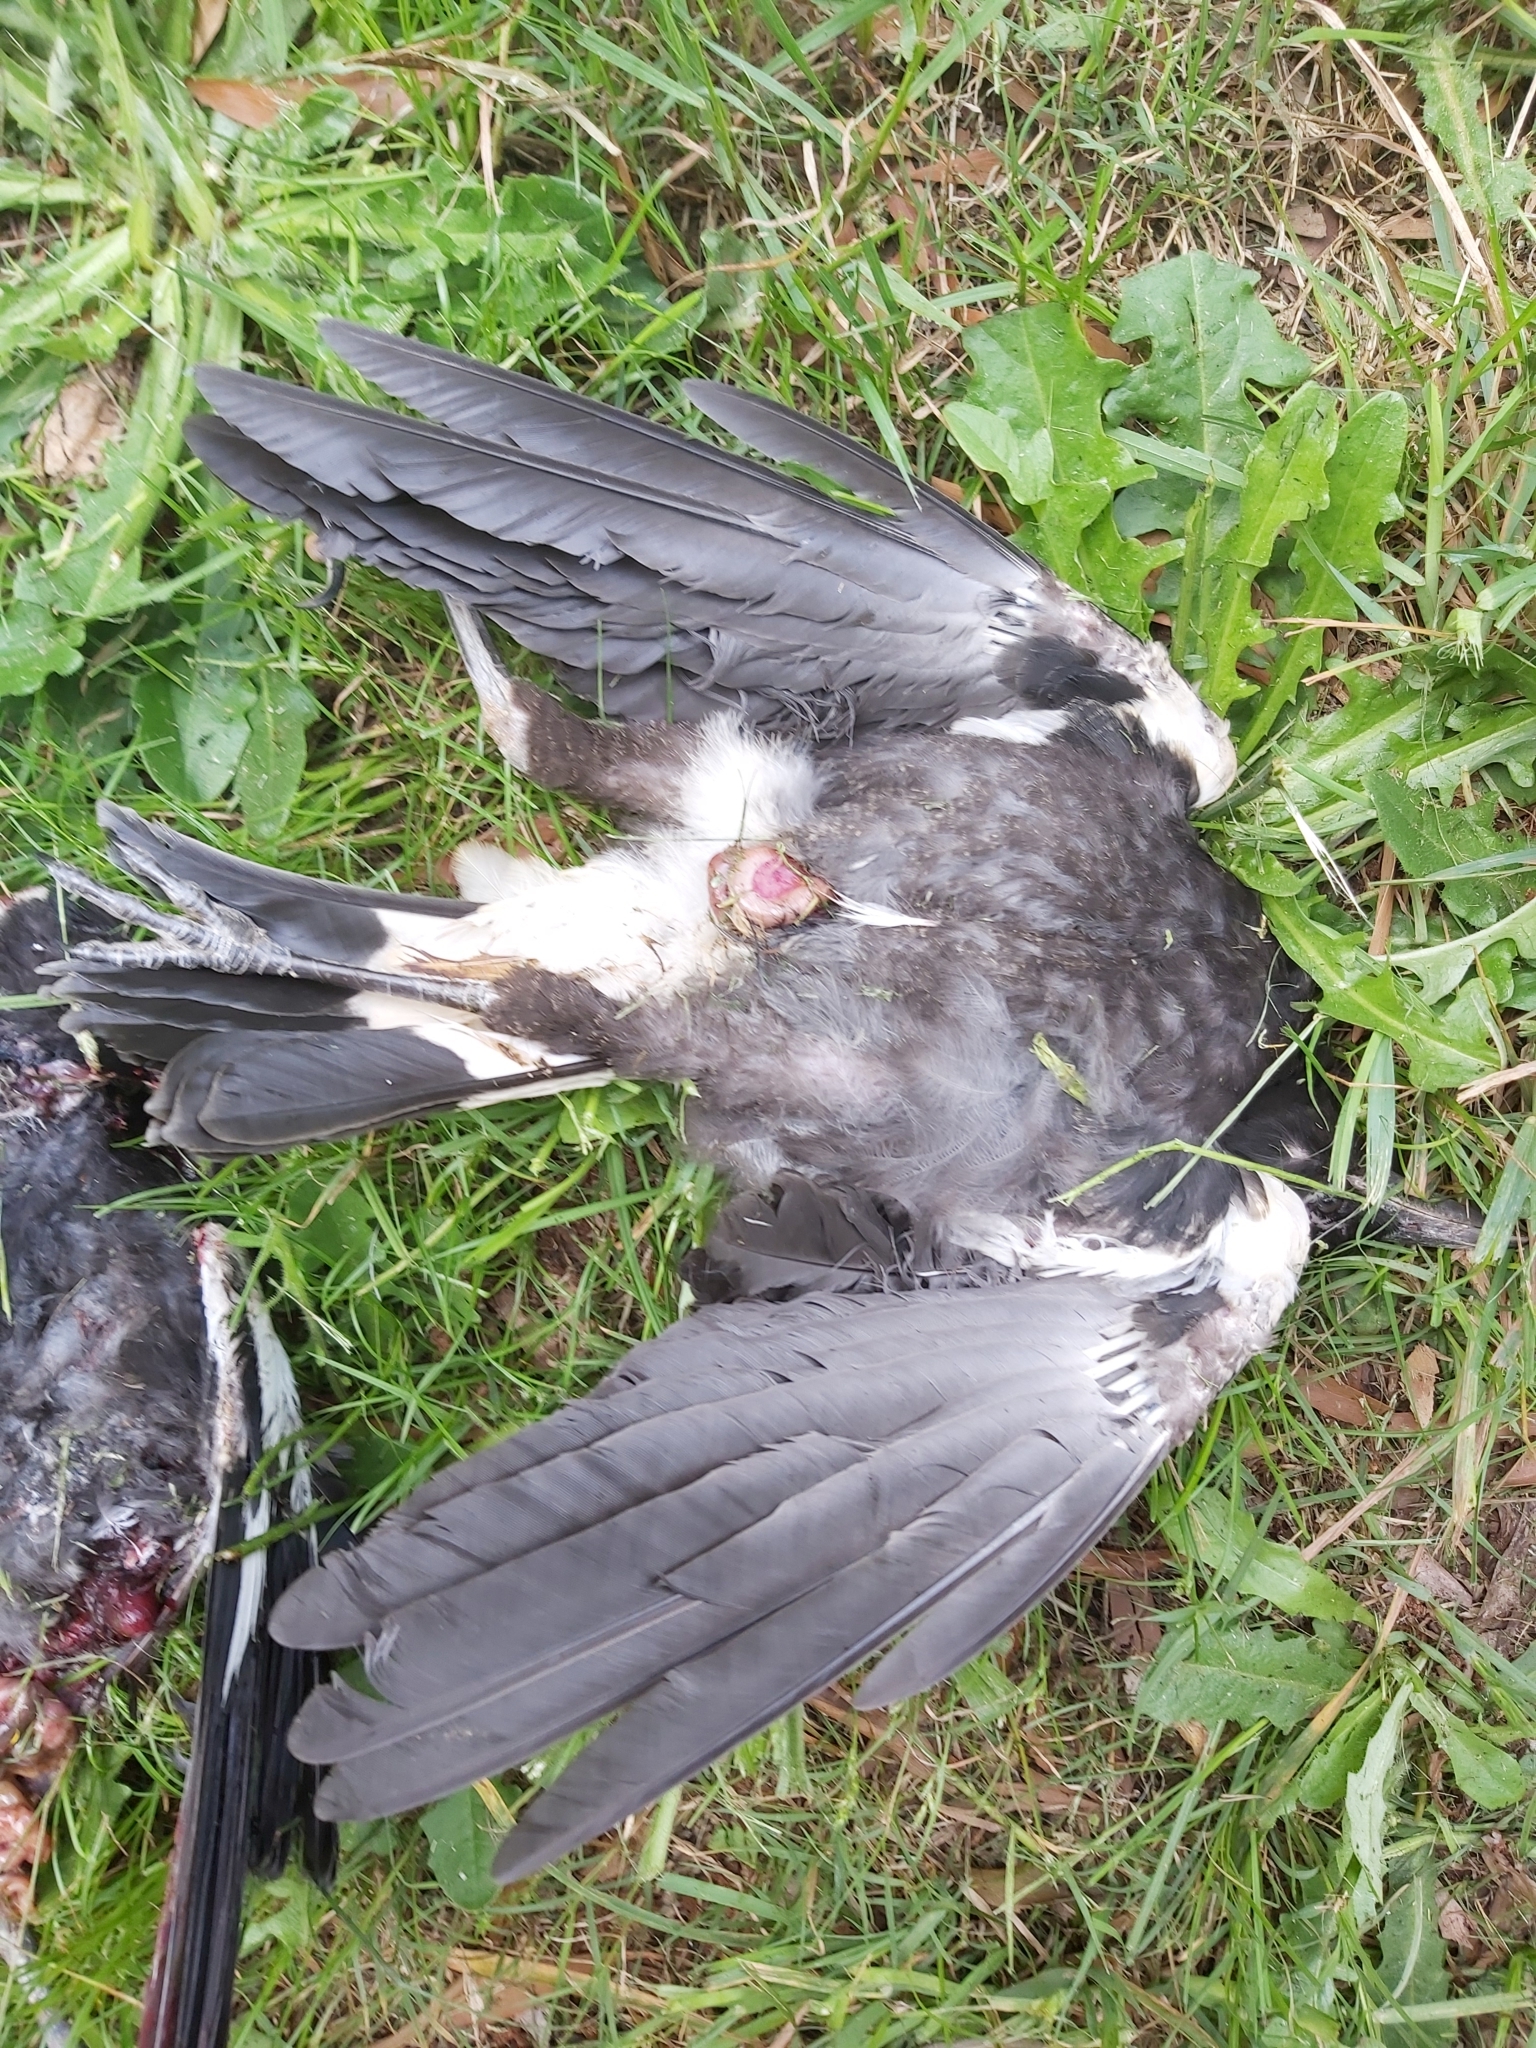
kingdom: Animalia
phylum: Chordata
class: Aves
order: Passeriformes
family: Cracticidae
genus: Gymnorhina
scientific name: Gymnorhina tibicen
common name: Australian magpie
